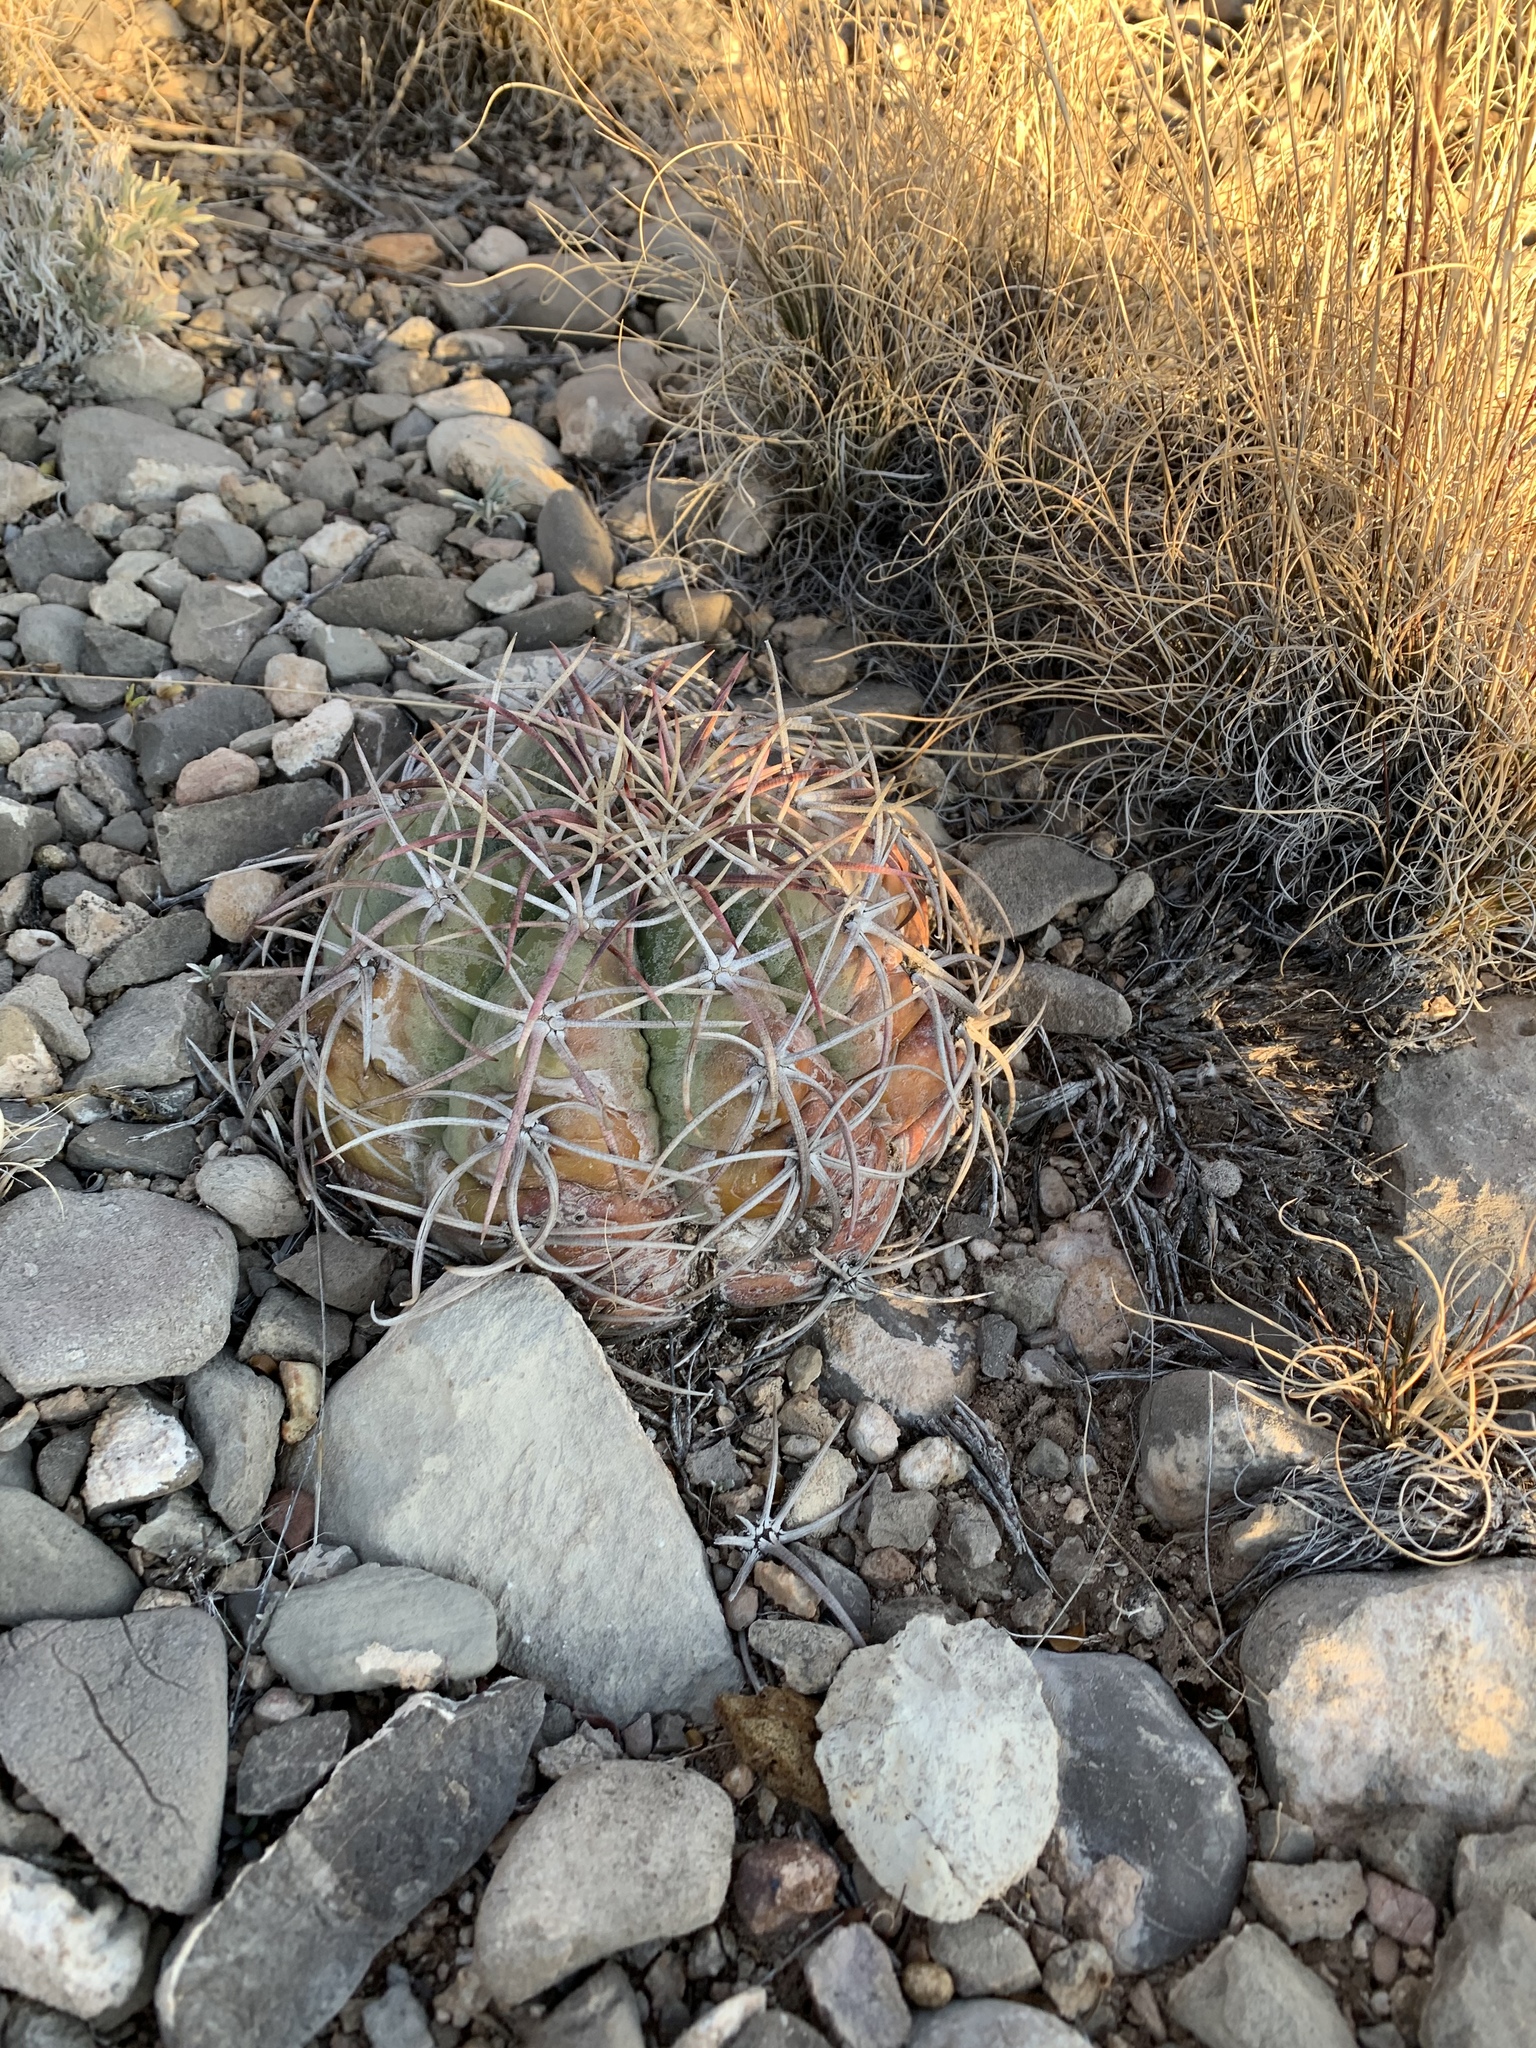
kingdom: Plantae
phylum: Tracheophyta
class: Magnoliopsida
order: Caryophyllales
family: Cactaceae
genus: Echinocactus
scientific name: Echinocactus horizonthalonius
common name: Devilshead
